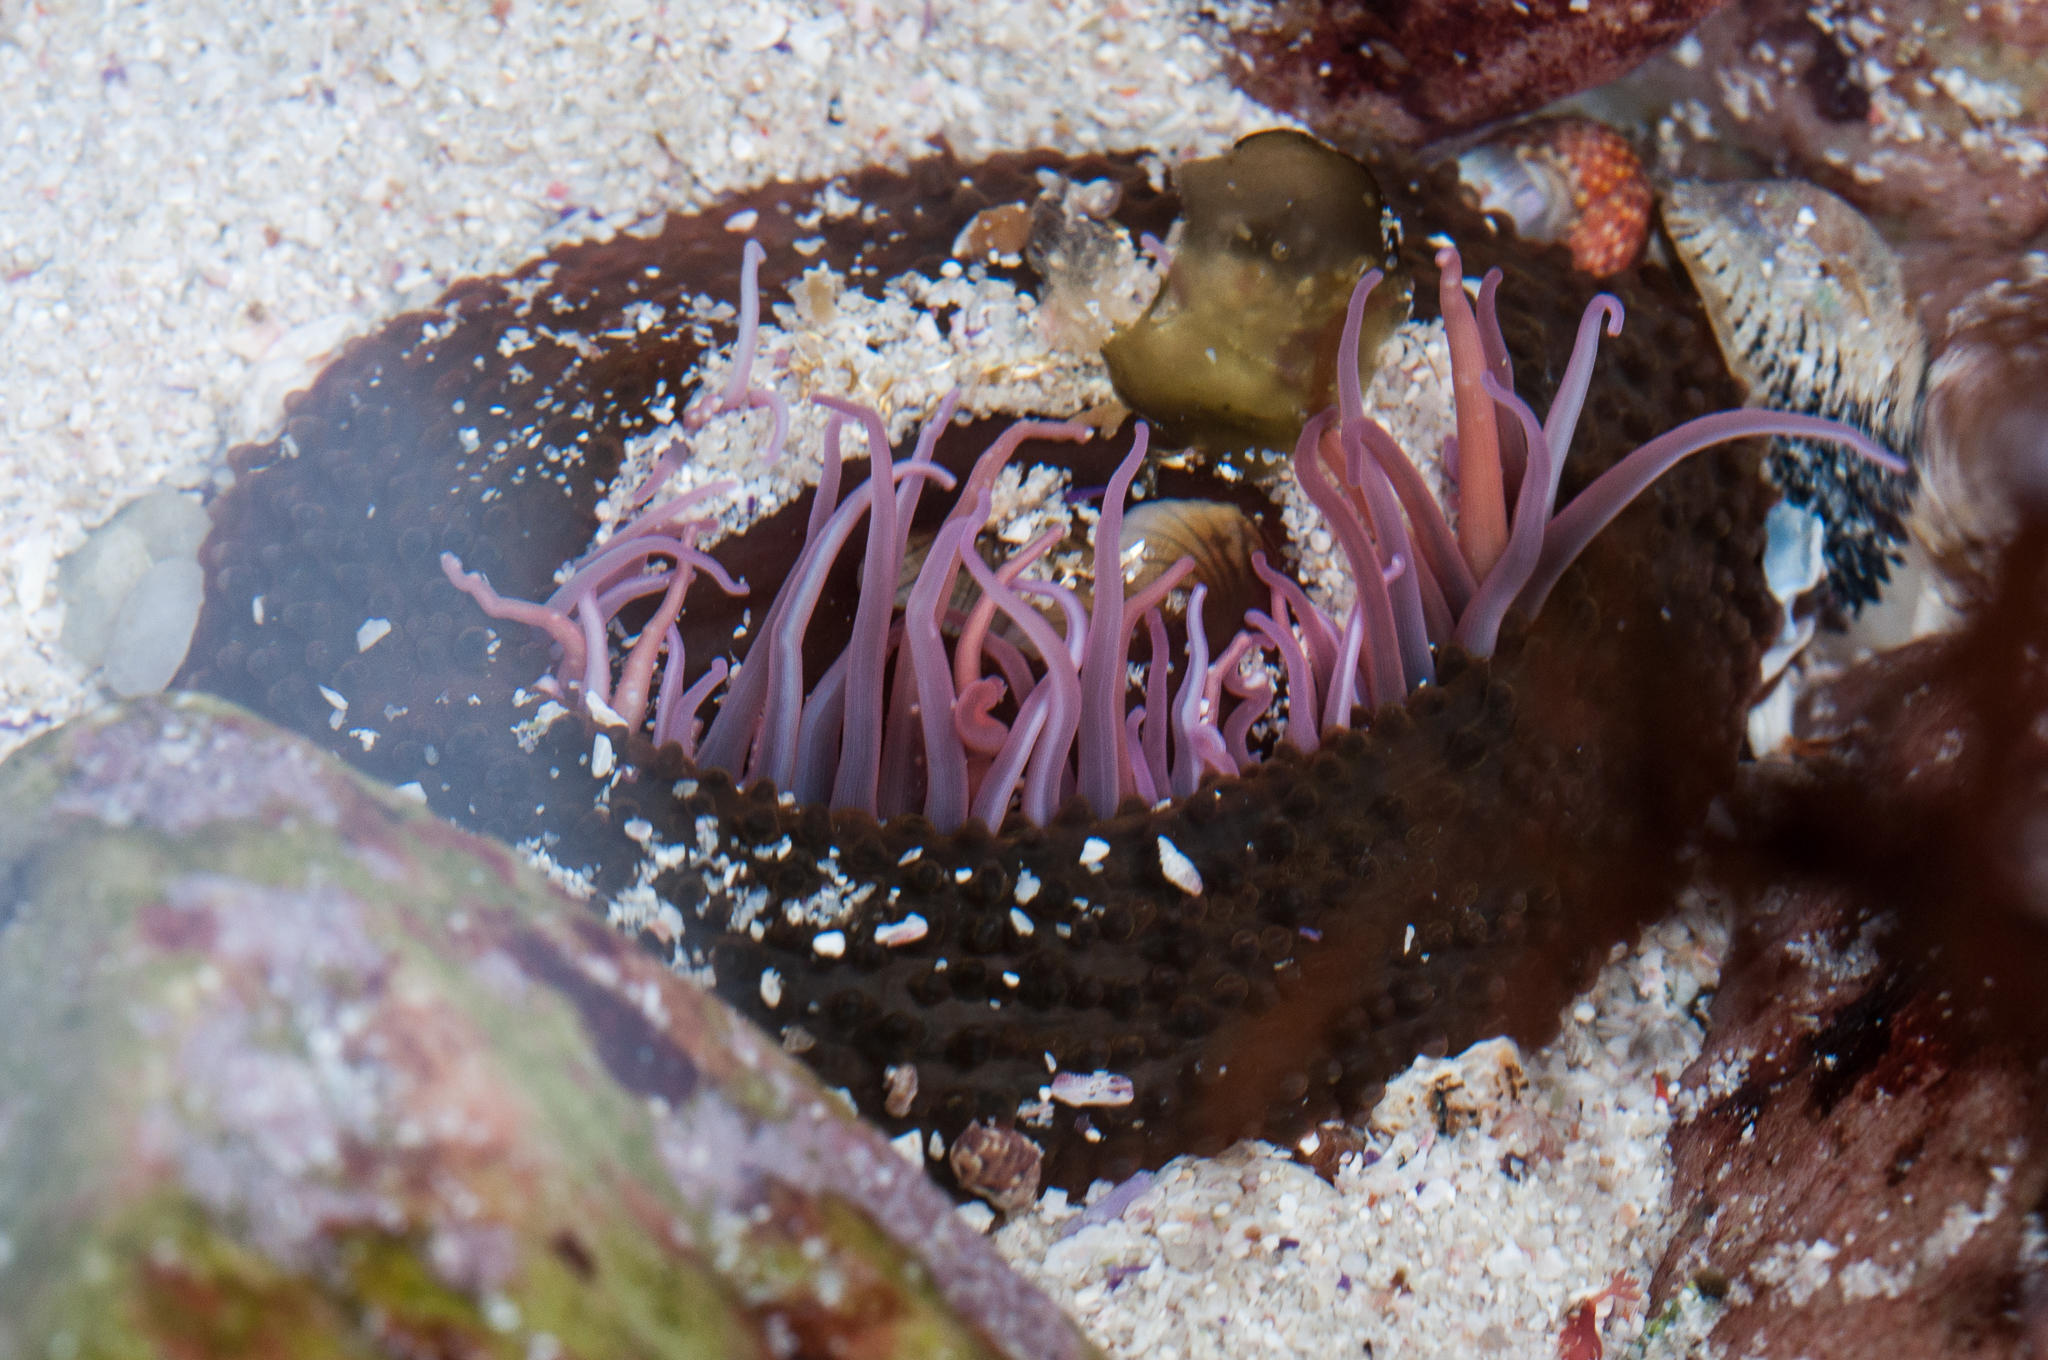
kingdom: Animalia
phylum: Cnidaria
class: Anthozoa
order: Actiniaria
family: Actiniidae
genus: Bunodosoma
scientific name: Bunodosoma capense
